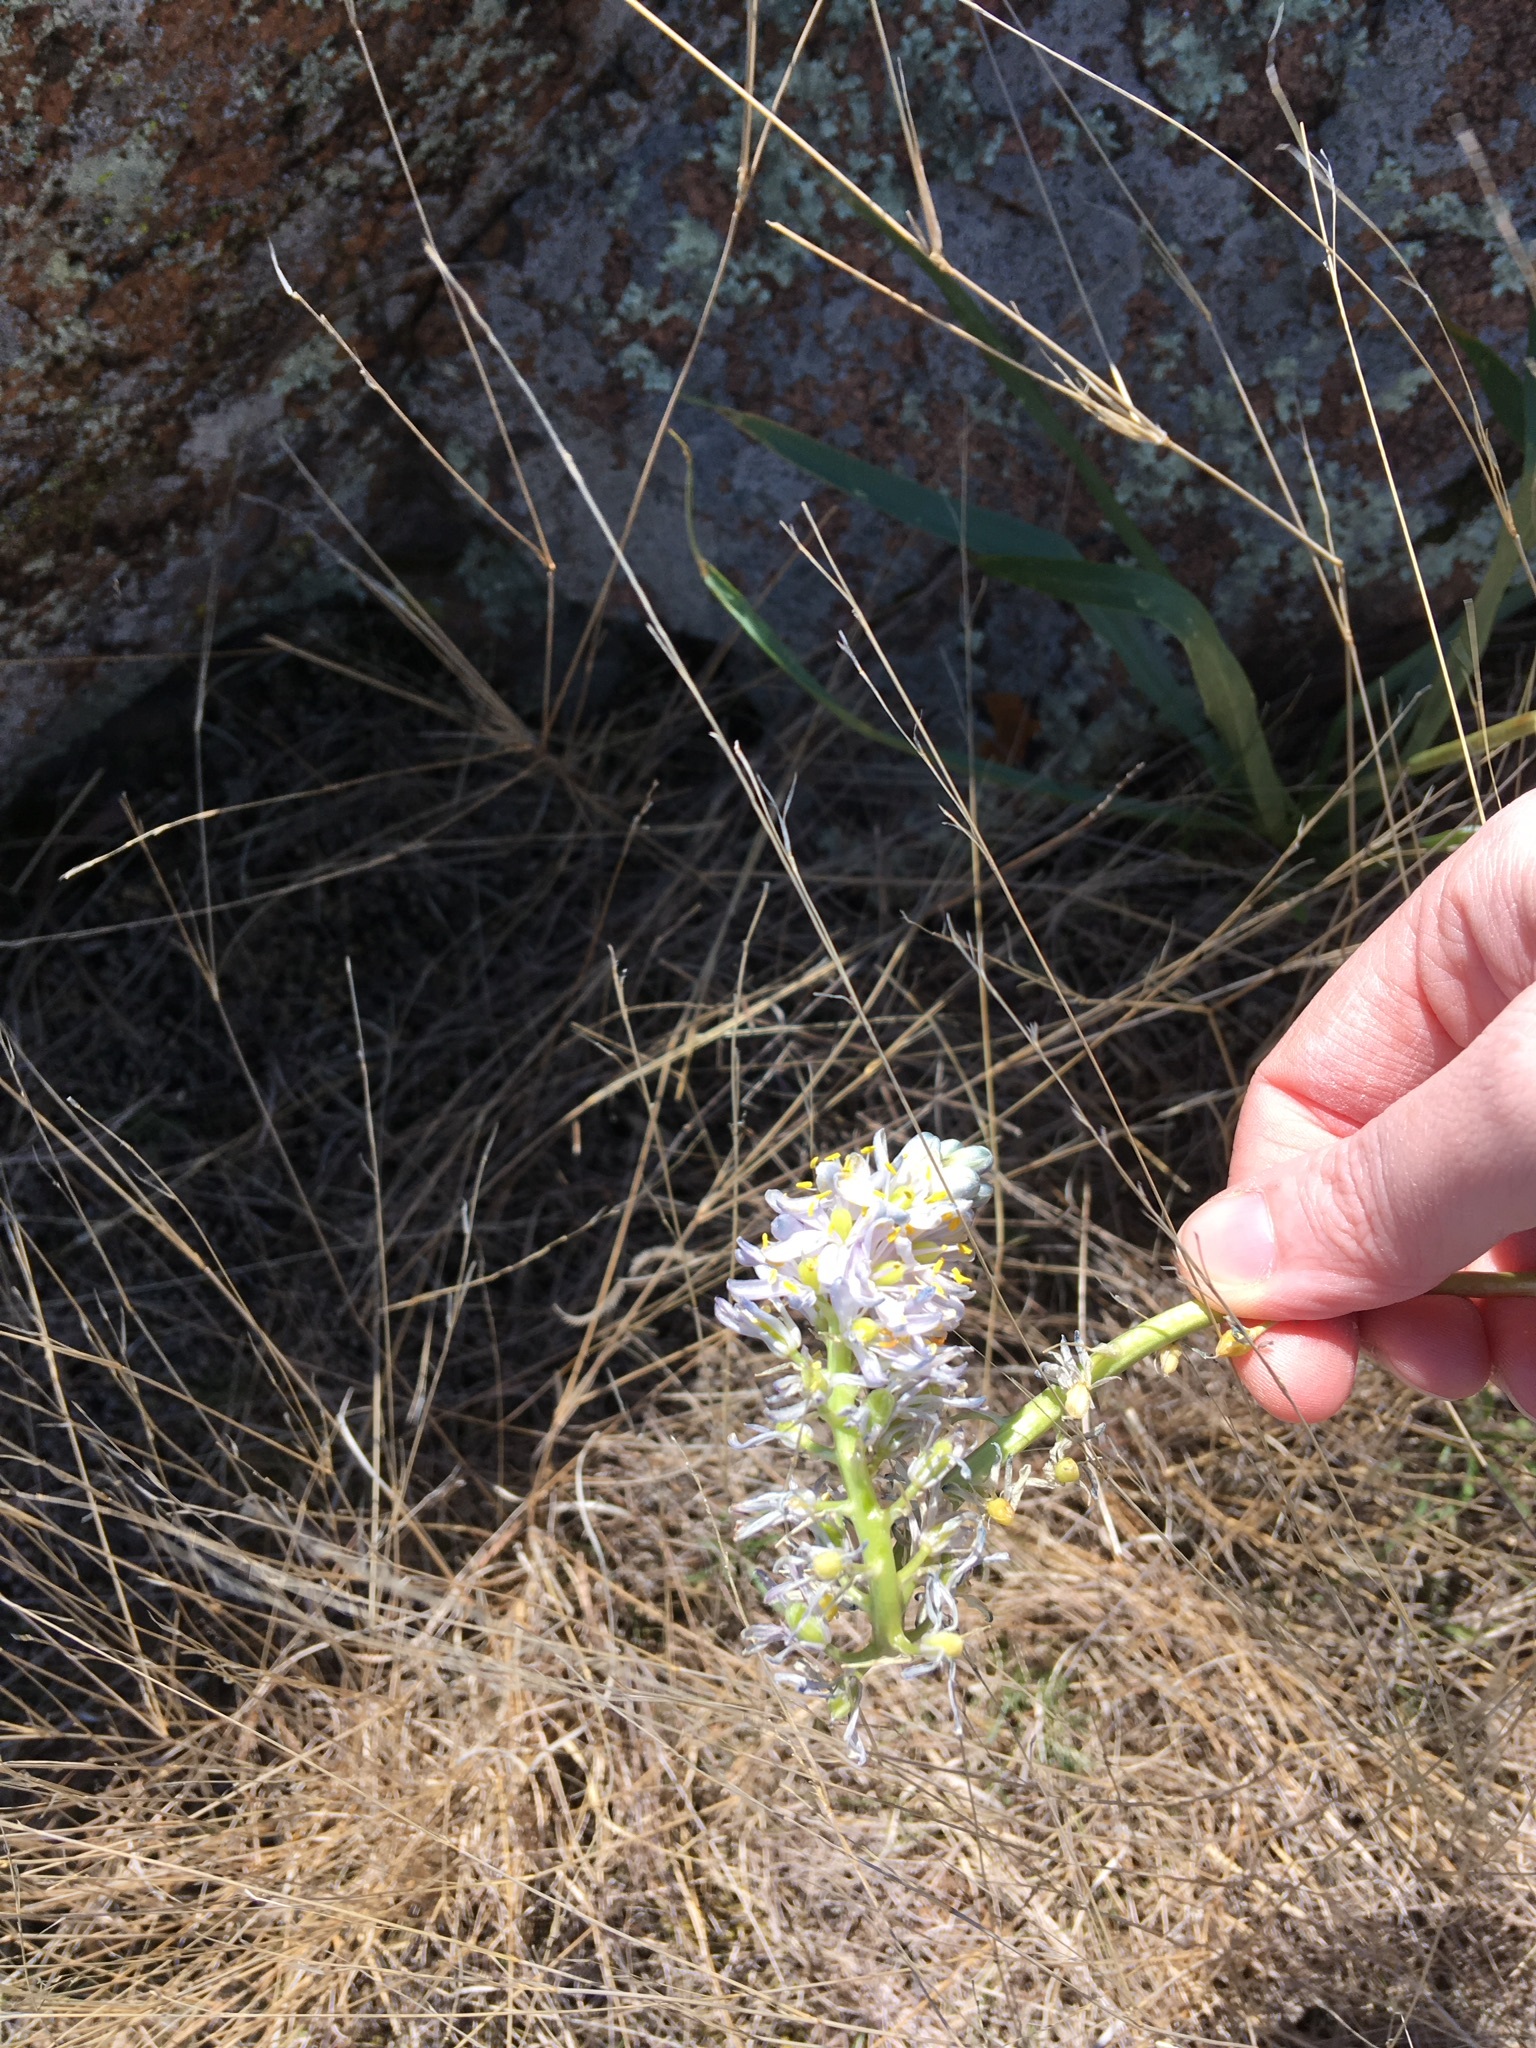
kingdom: Plantae
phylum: Tracheophyta
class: Liliopsida
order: Asparagales
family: Asparagaceae
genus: Camassia
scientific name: Camassia scilloides
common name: Wild hyacinth
